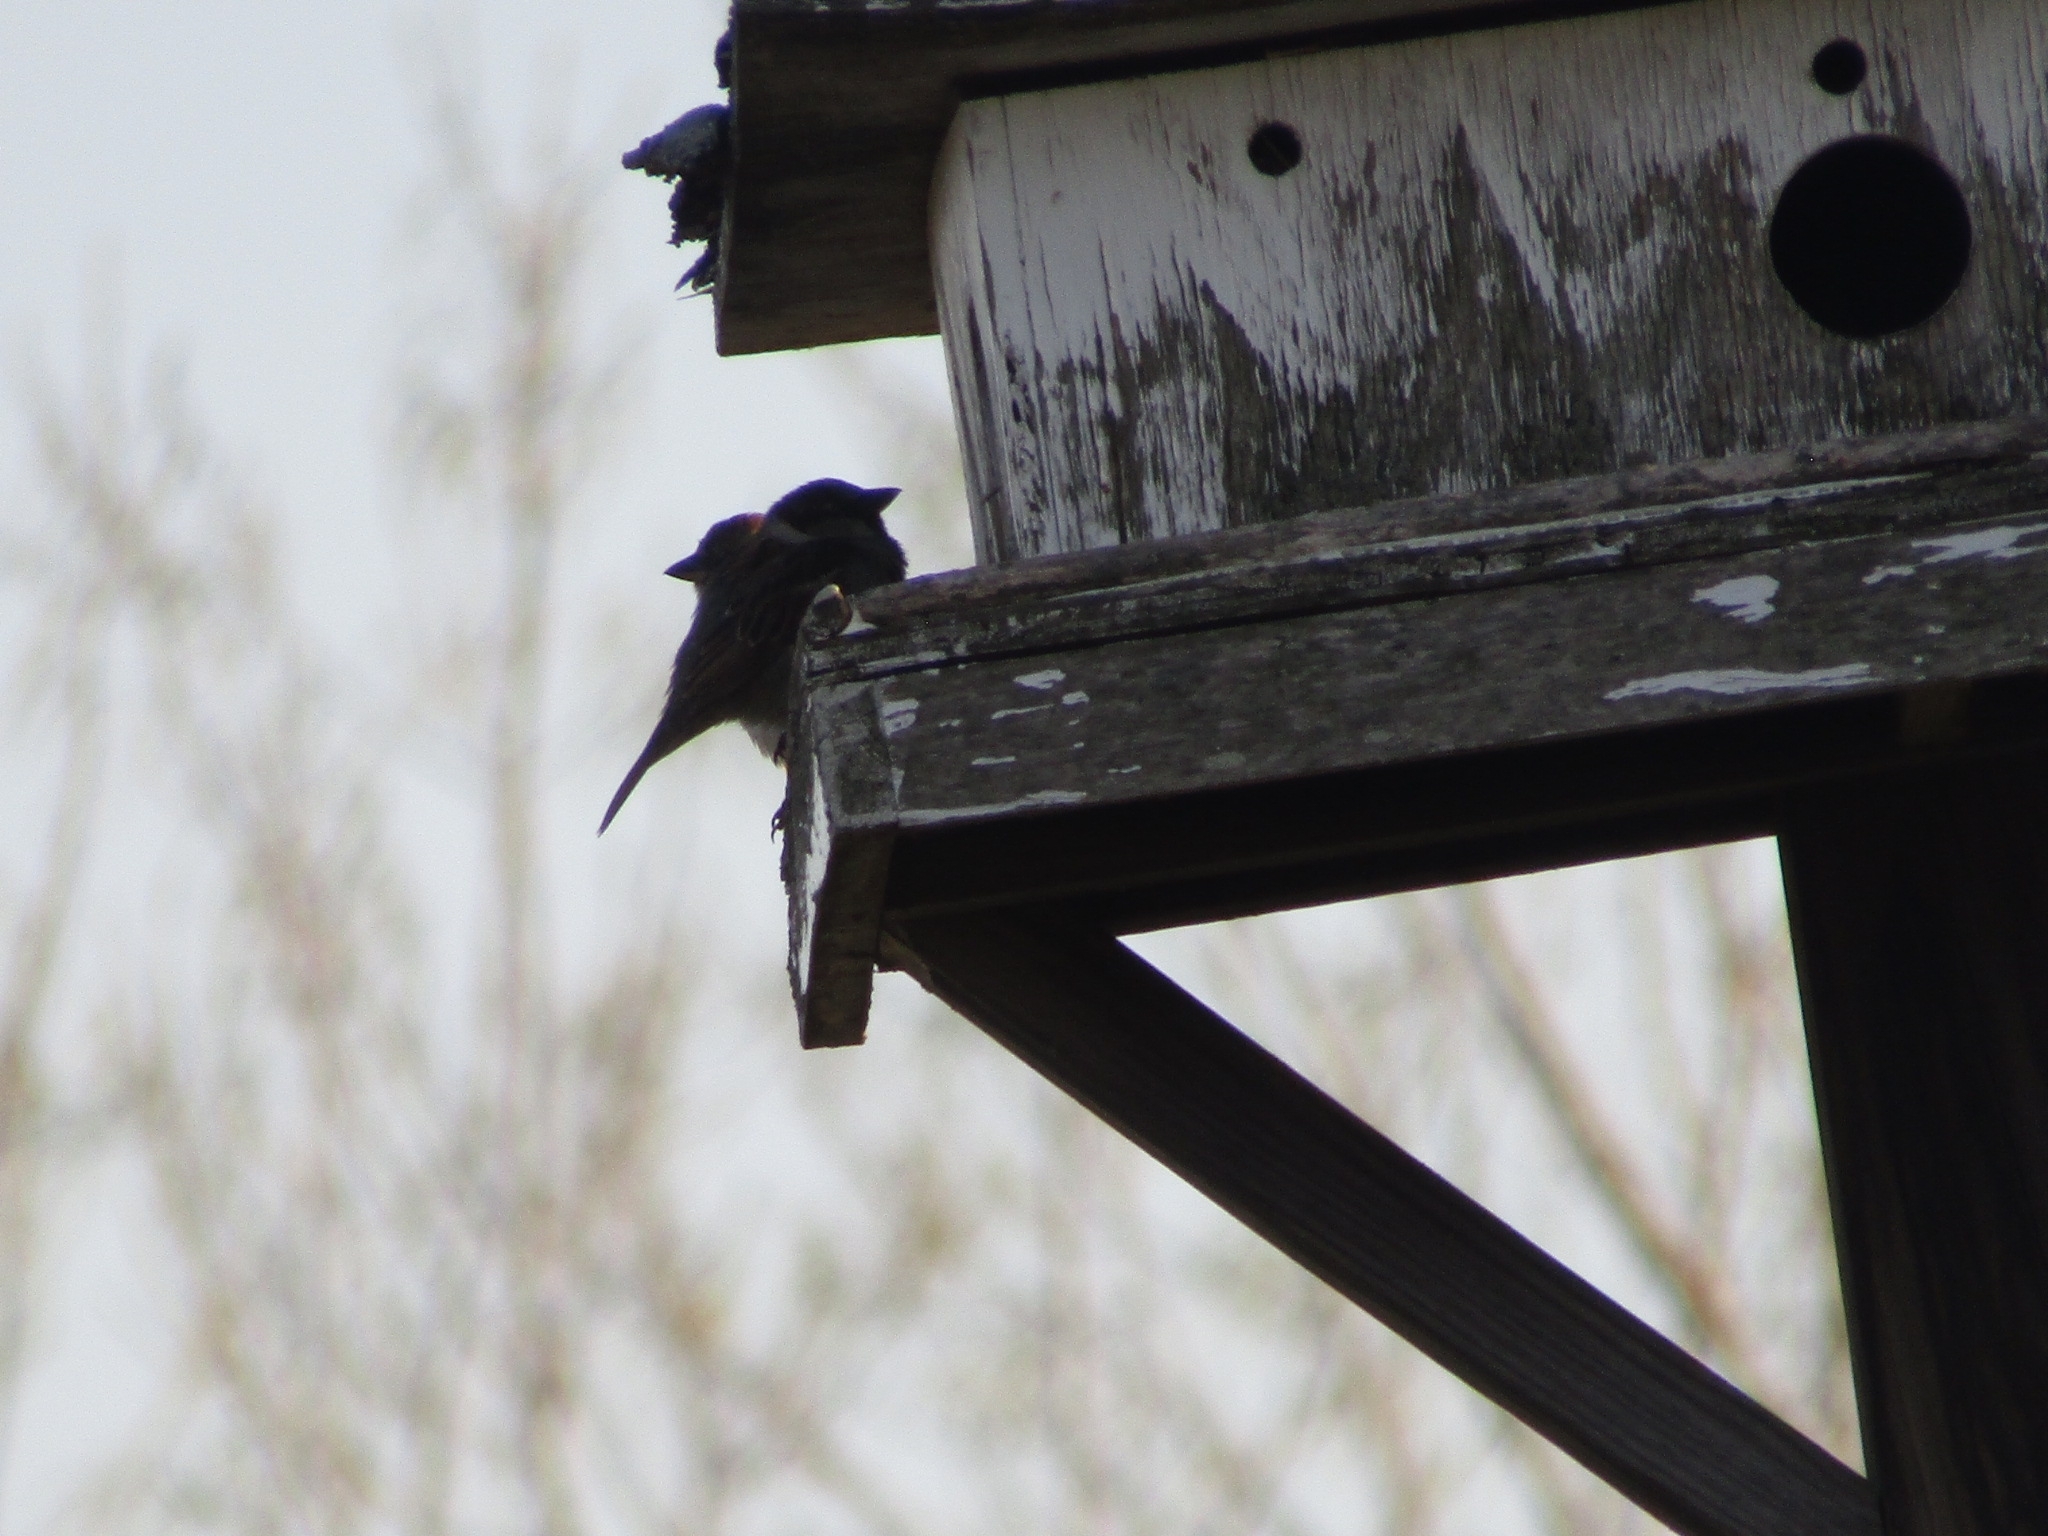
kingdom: Animalia
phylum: Chordata
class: Aves
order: Passeriformes
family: Passeridae
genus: Passer
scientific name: Passer domesticus
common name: House sparrow
